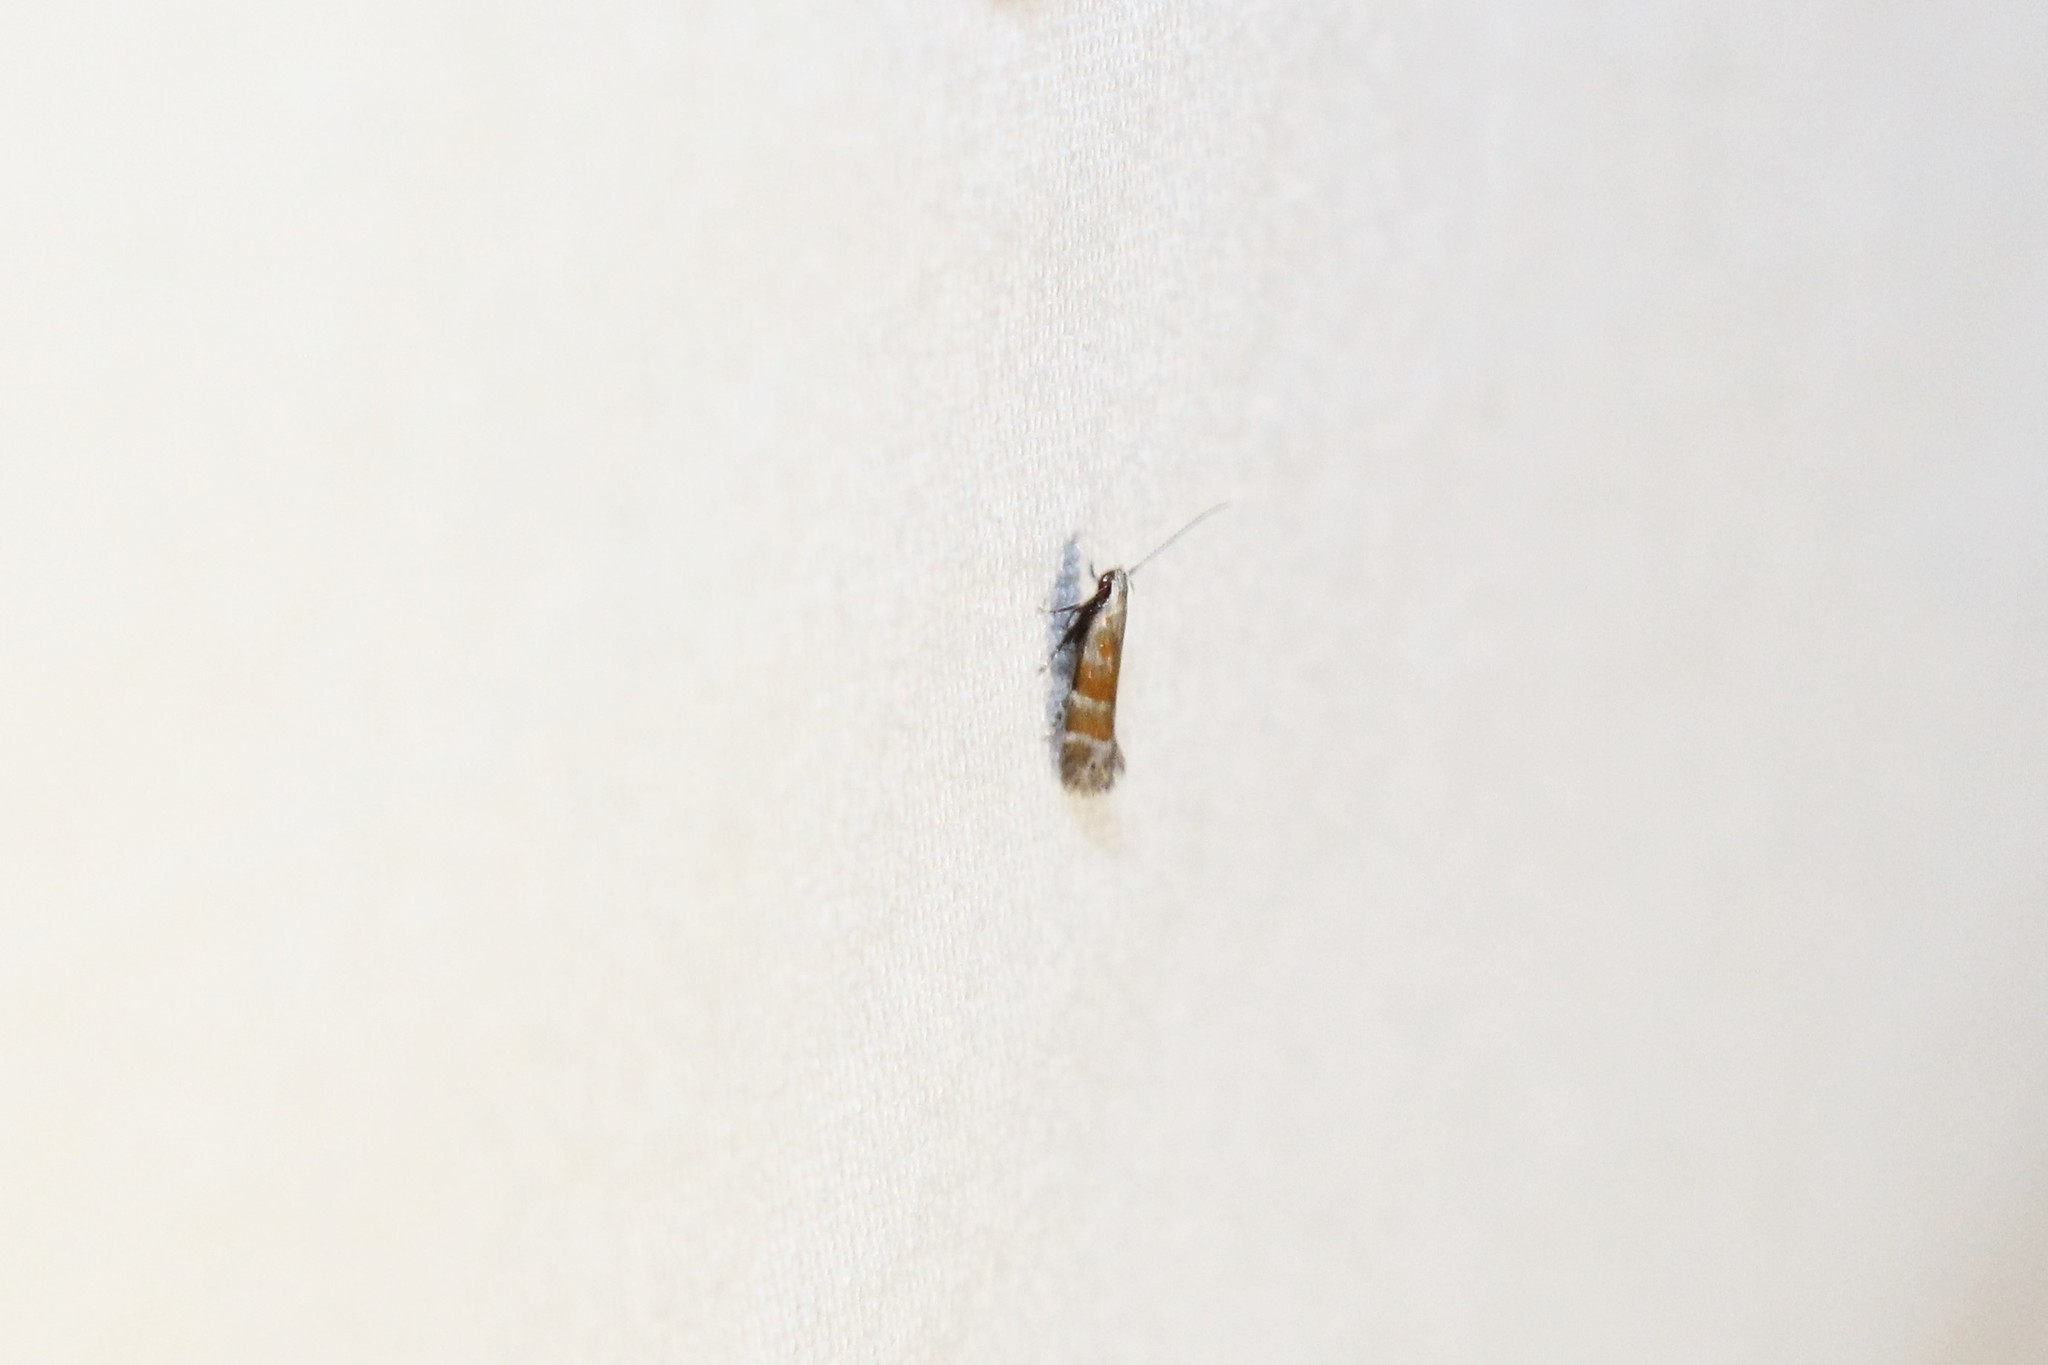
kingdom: Animalia
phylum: Arthropoda
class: Insecta
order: Lepidoptera
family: Gelechiidae
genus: Battaristis
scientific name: Battaristis vittella
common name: Orange stripe-backed moth
